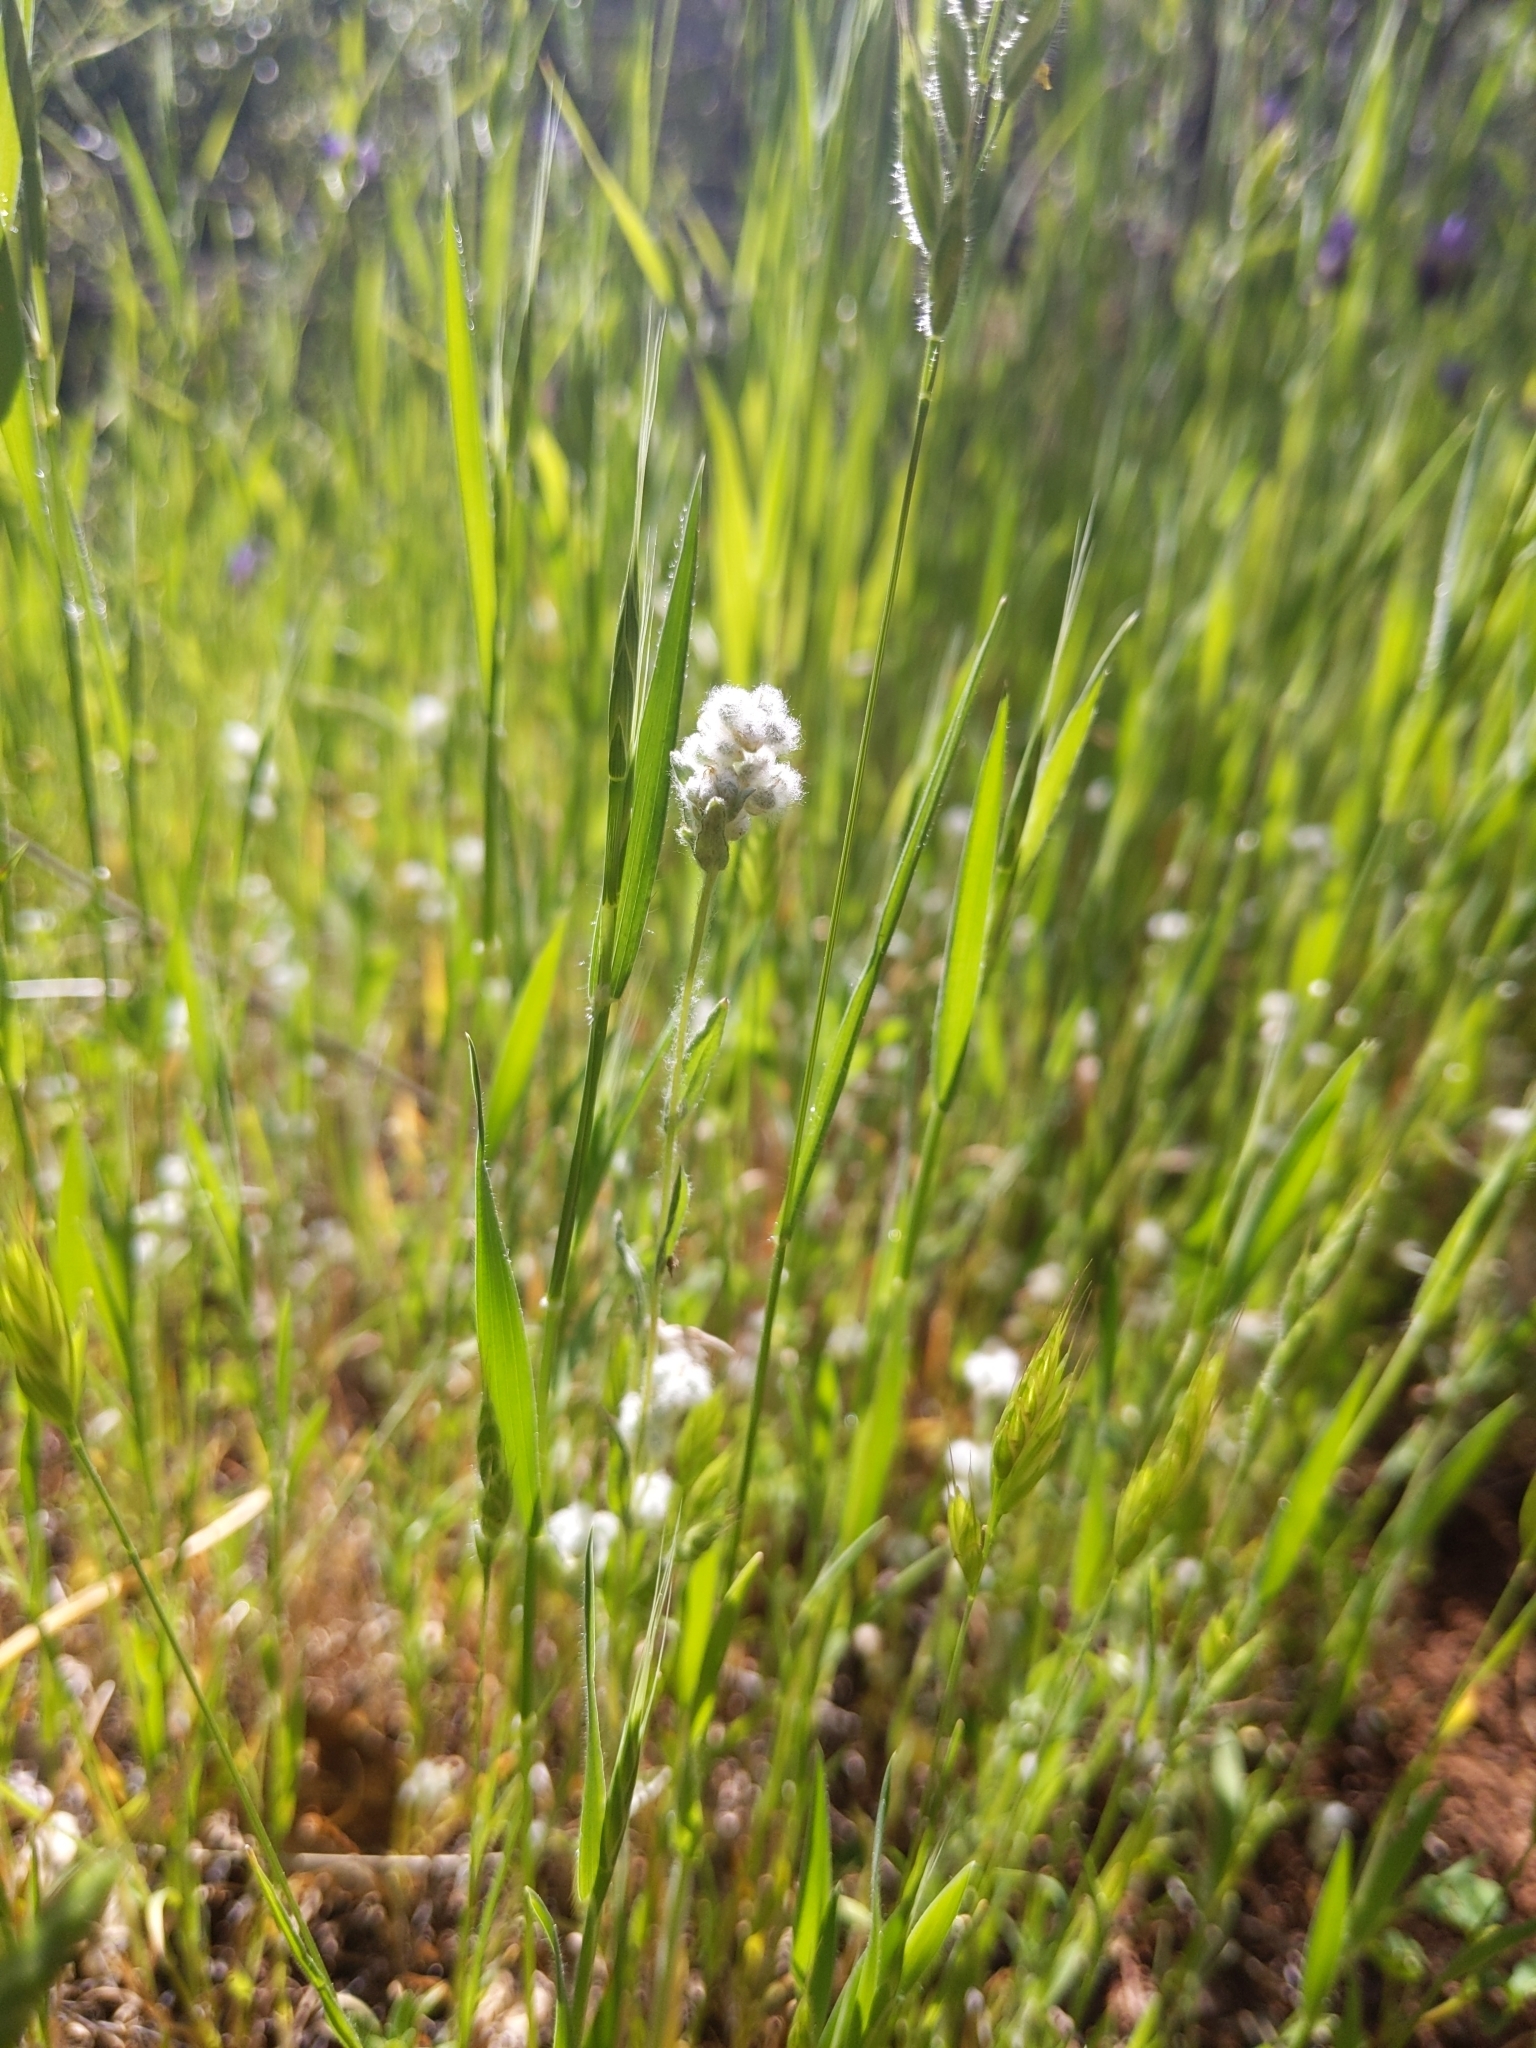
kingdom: Plantae
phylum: Tracheophyta
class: Magnoliopsida
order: Asterales
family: Asteraceae
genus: Bombycilaena
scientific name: Bombycilaena californica
